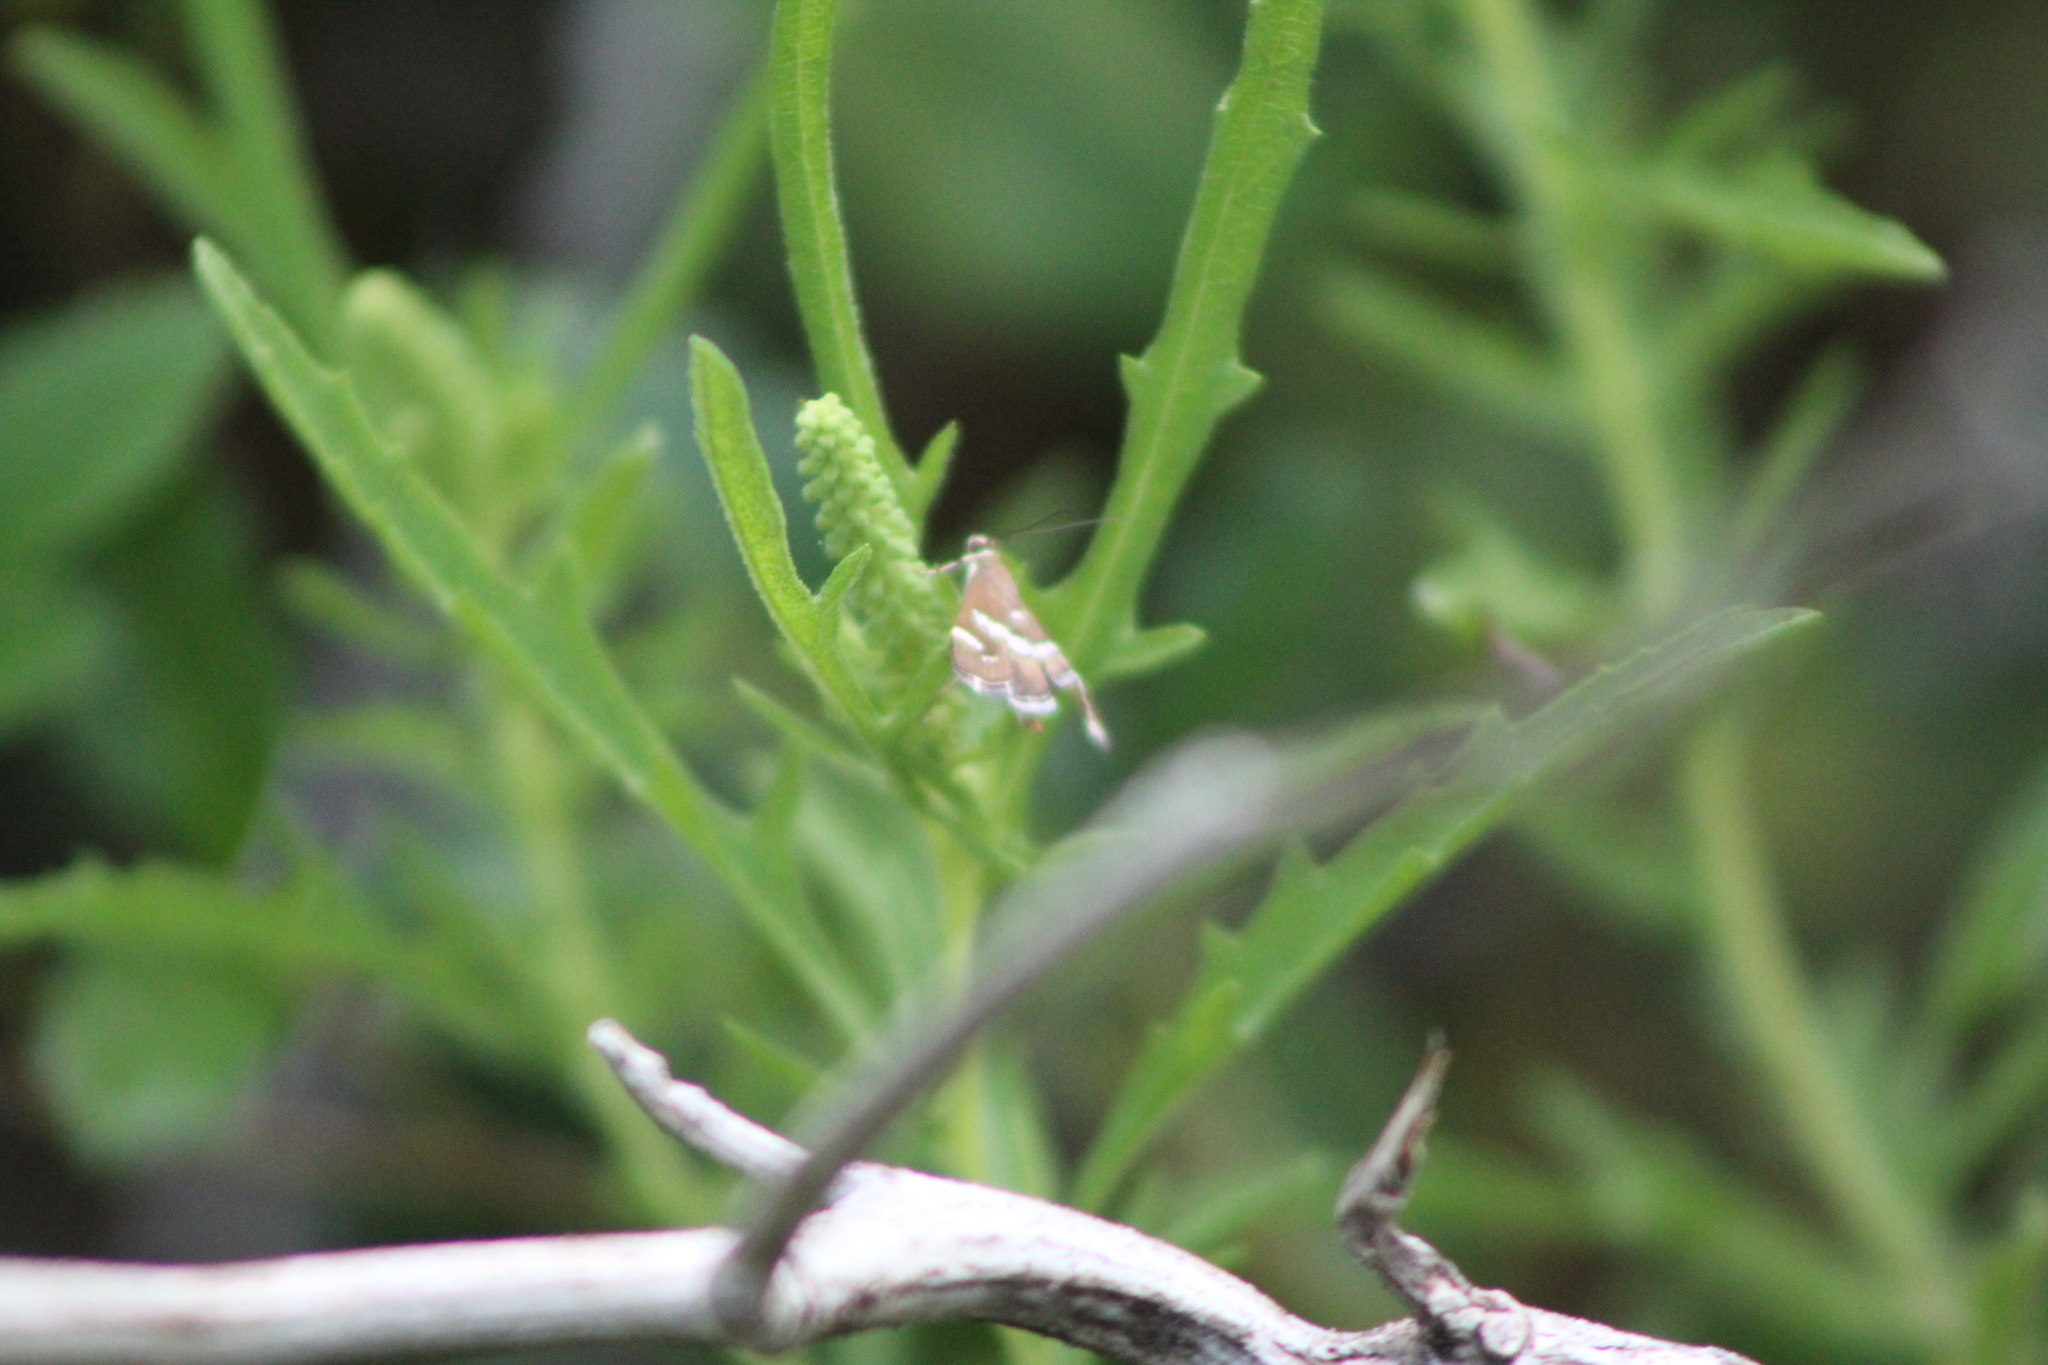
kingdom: Animalia
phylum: Arthropoda
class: Insecta
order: Lepidoptera
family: Crambidae
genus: Spoladea
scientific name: Spoladea recurvalis
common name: Beet webworm moth
